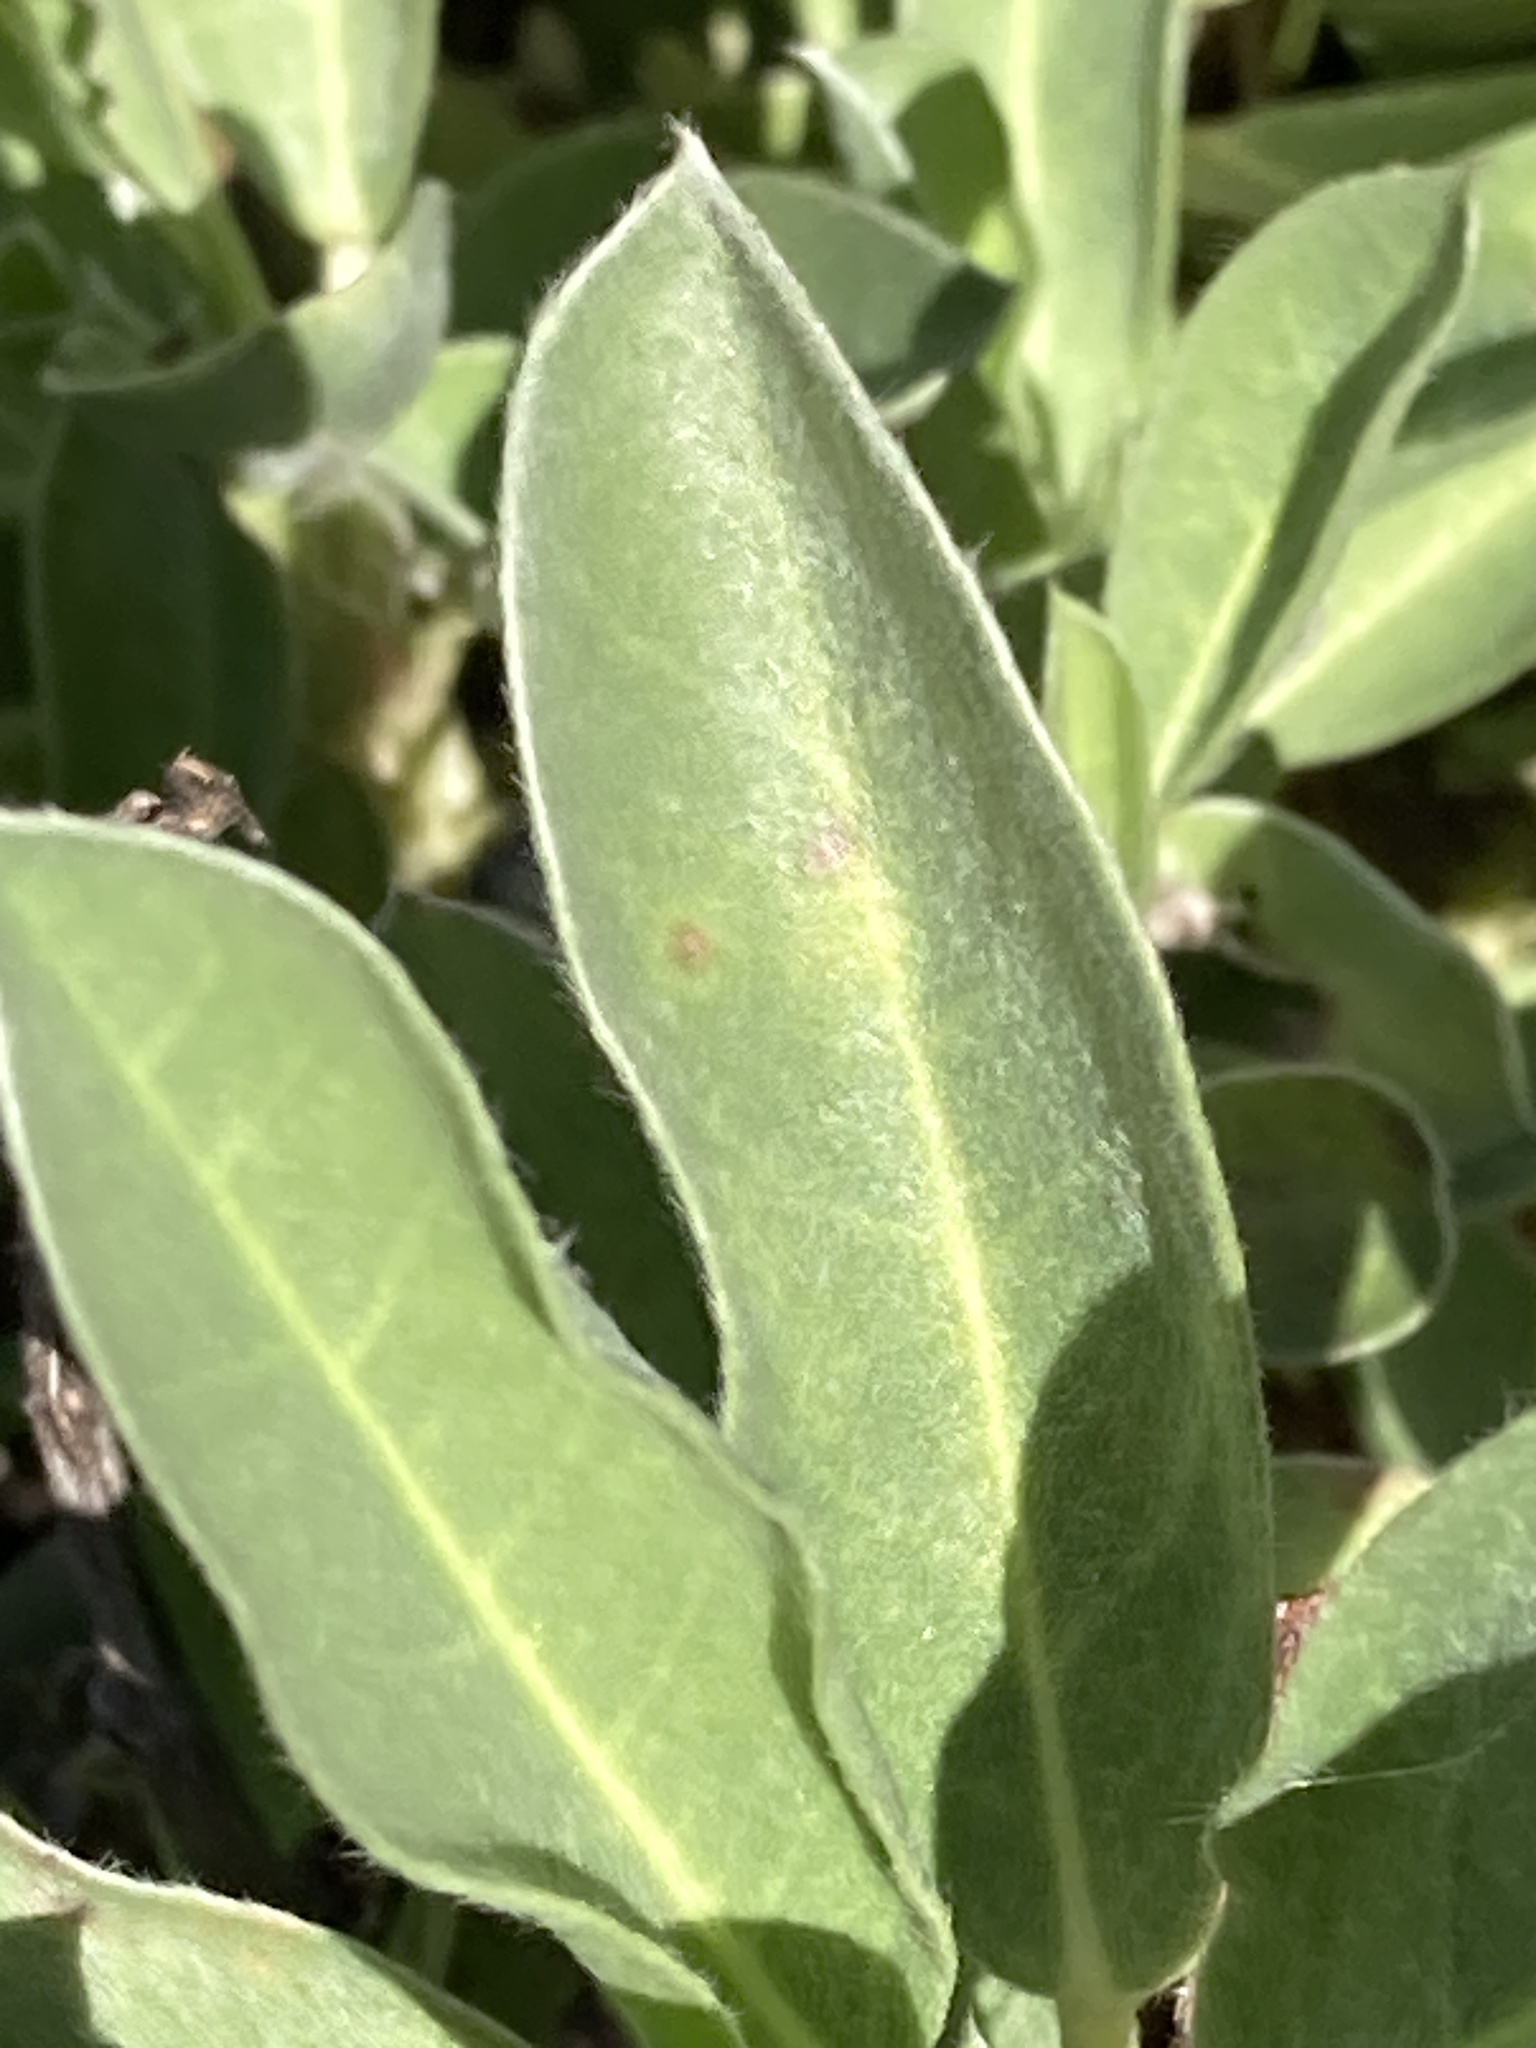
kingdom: Plantae
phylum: Tracheophyta
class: Magnoliopsida
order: Fabales
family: Fabaceae
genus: Lupinus
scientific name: Lupinus
